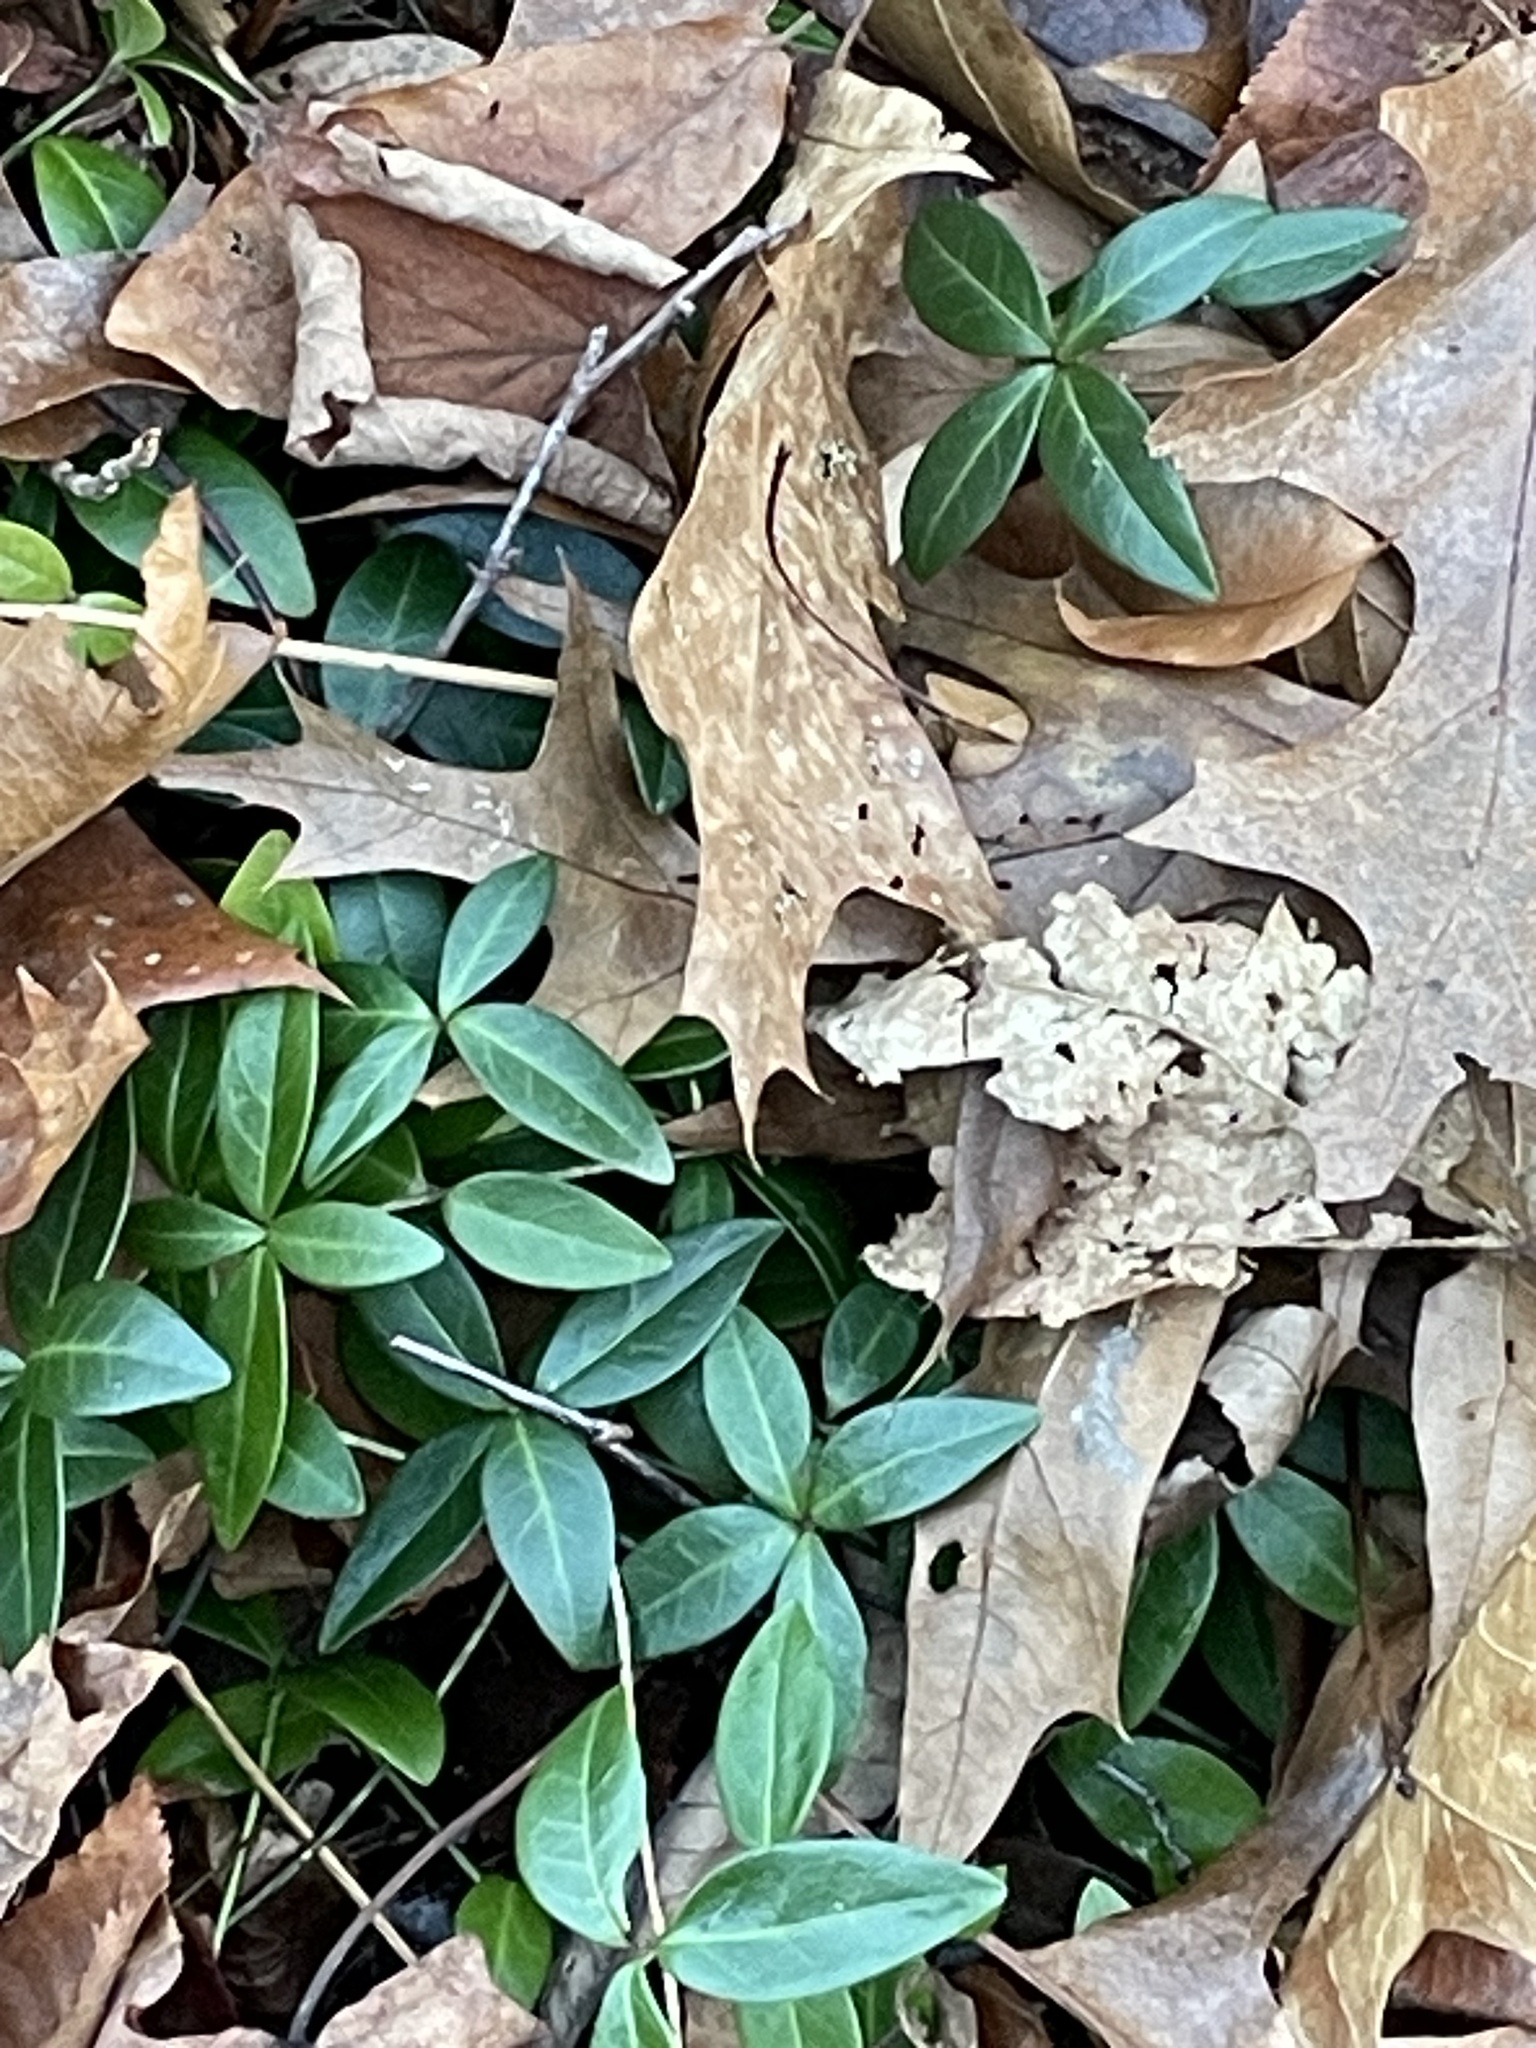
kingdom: Plantae
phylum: Tracheophyta
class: Magnoliopsida
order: Gentianales
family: Apocynaceae
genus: Vinca
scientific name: Vinca minor
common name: Lesser periwinkle
